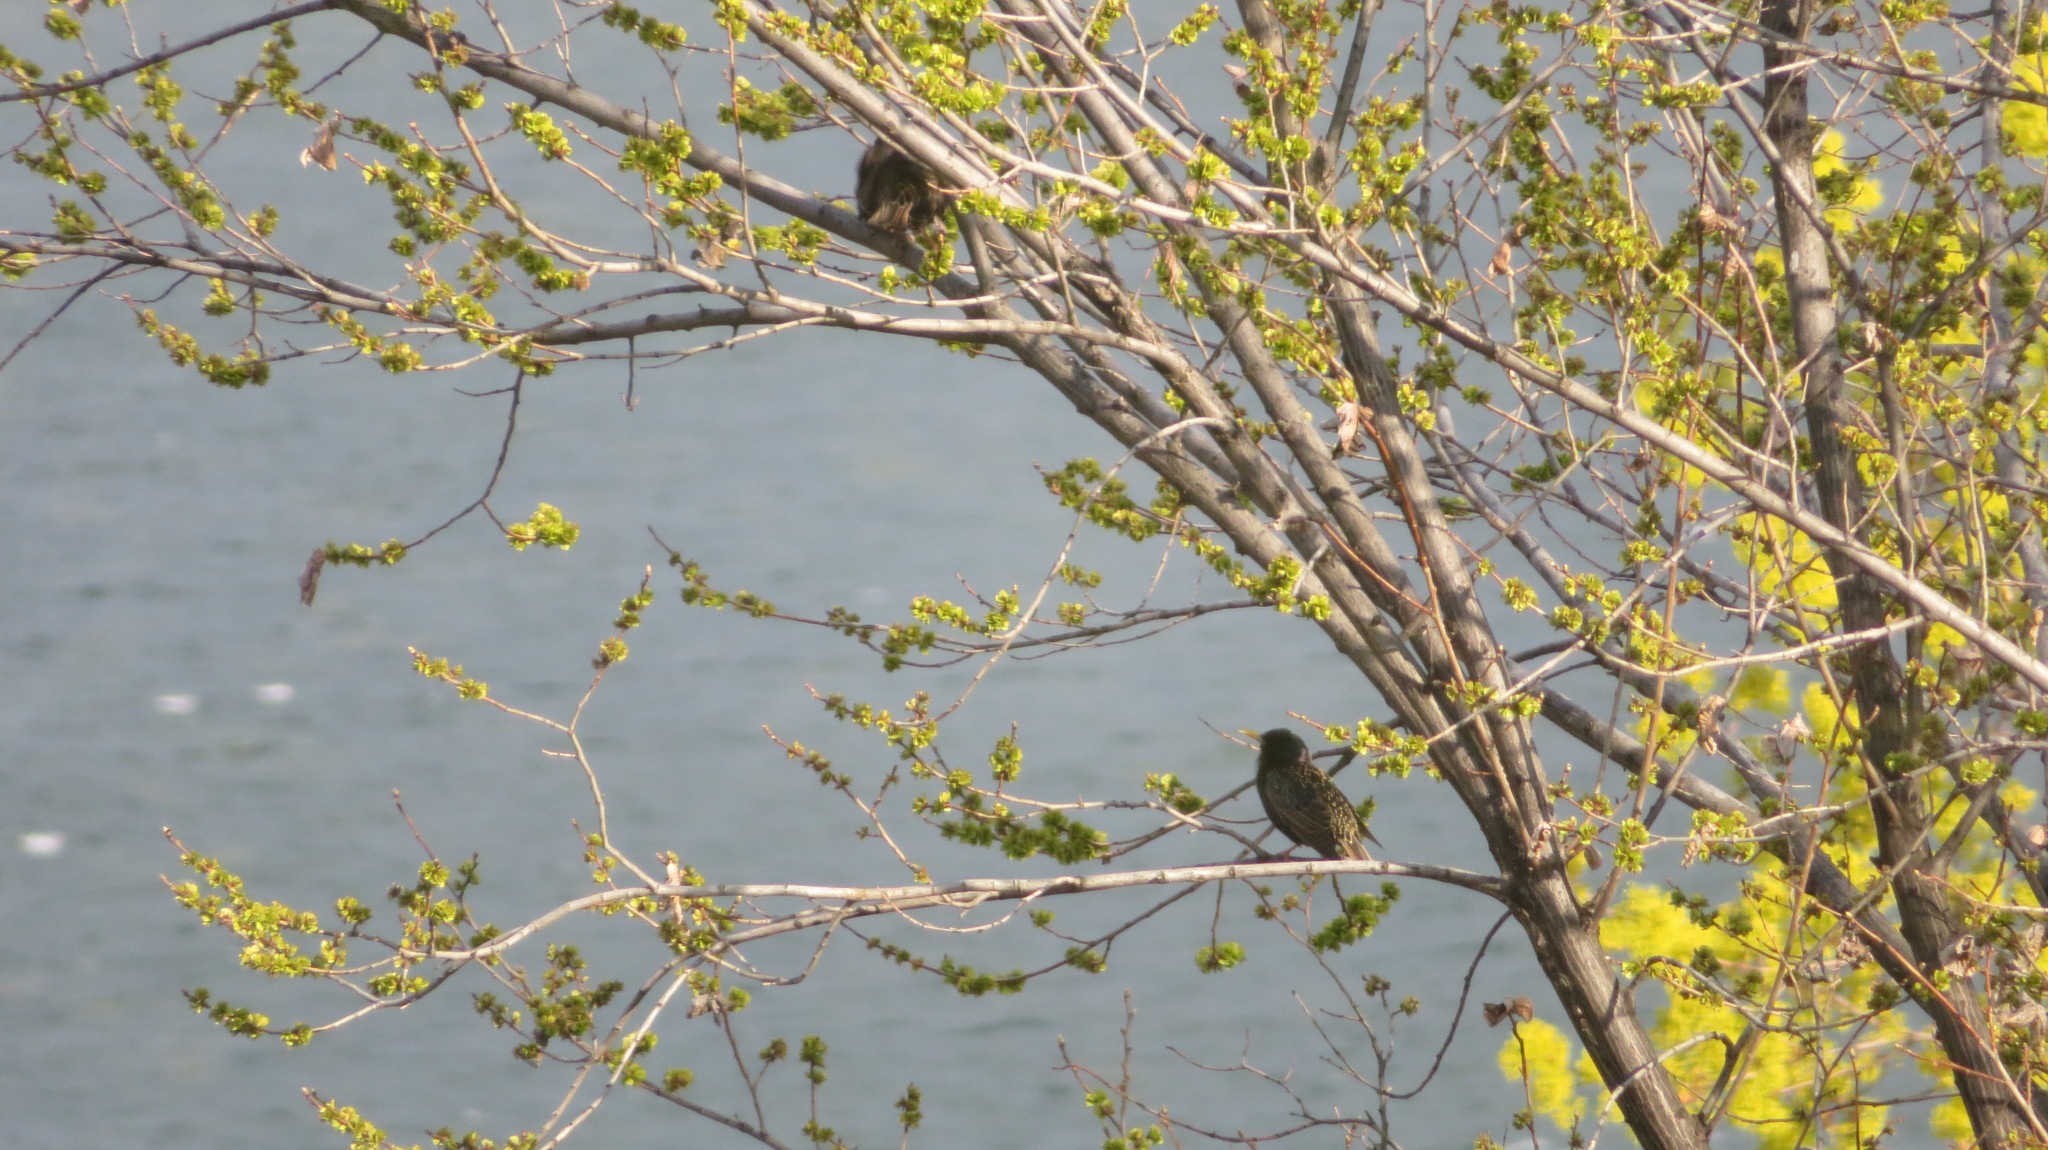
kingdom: Animalia
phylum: Chordata
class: Aves
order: Passeriformes
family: Sturnidae
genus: Sturnus
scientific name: Sturnus vulgaris
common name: Common starling
